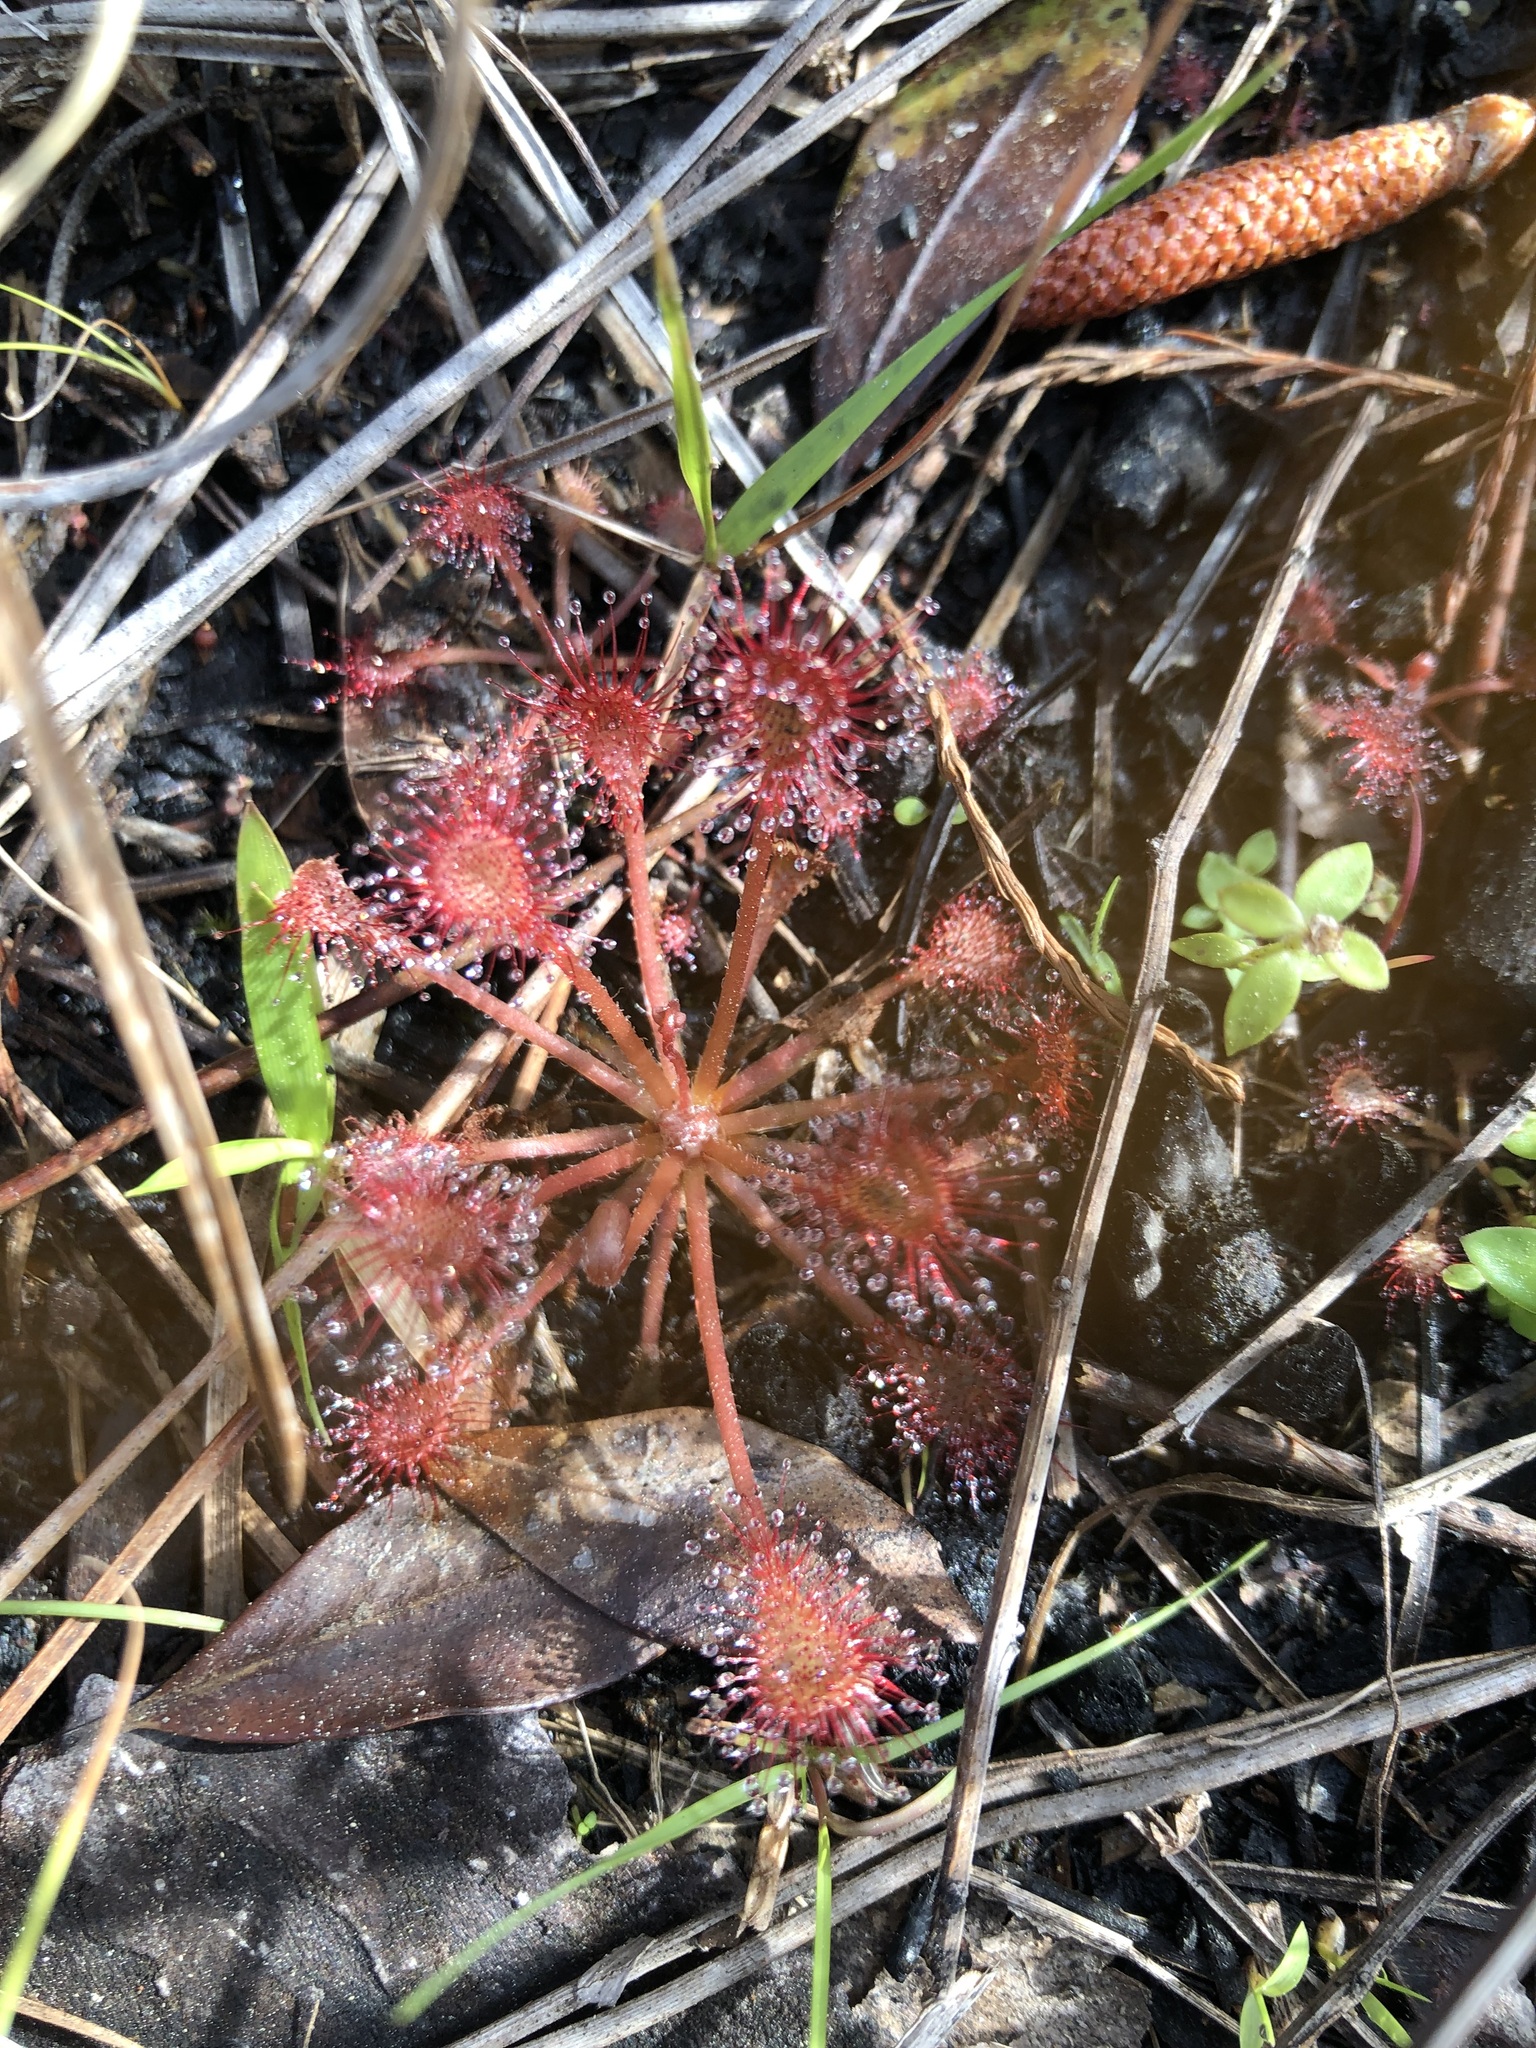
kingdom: Plantae
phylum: Tracheophyta
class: Magnoliopsida
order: Caryophyllales
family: Droseraceae
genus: Drosera
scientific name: Drosera capillaris
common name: Pink sundew
